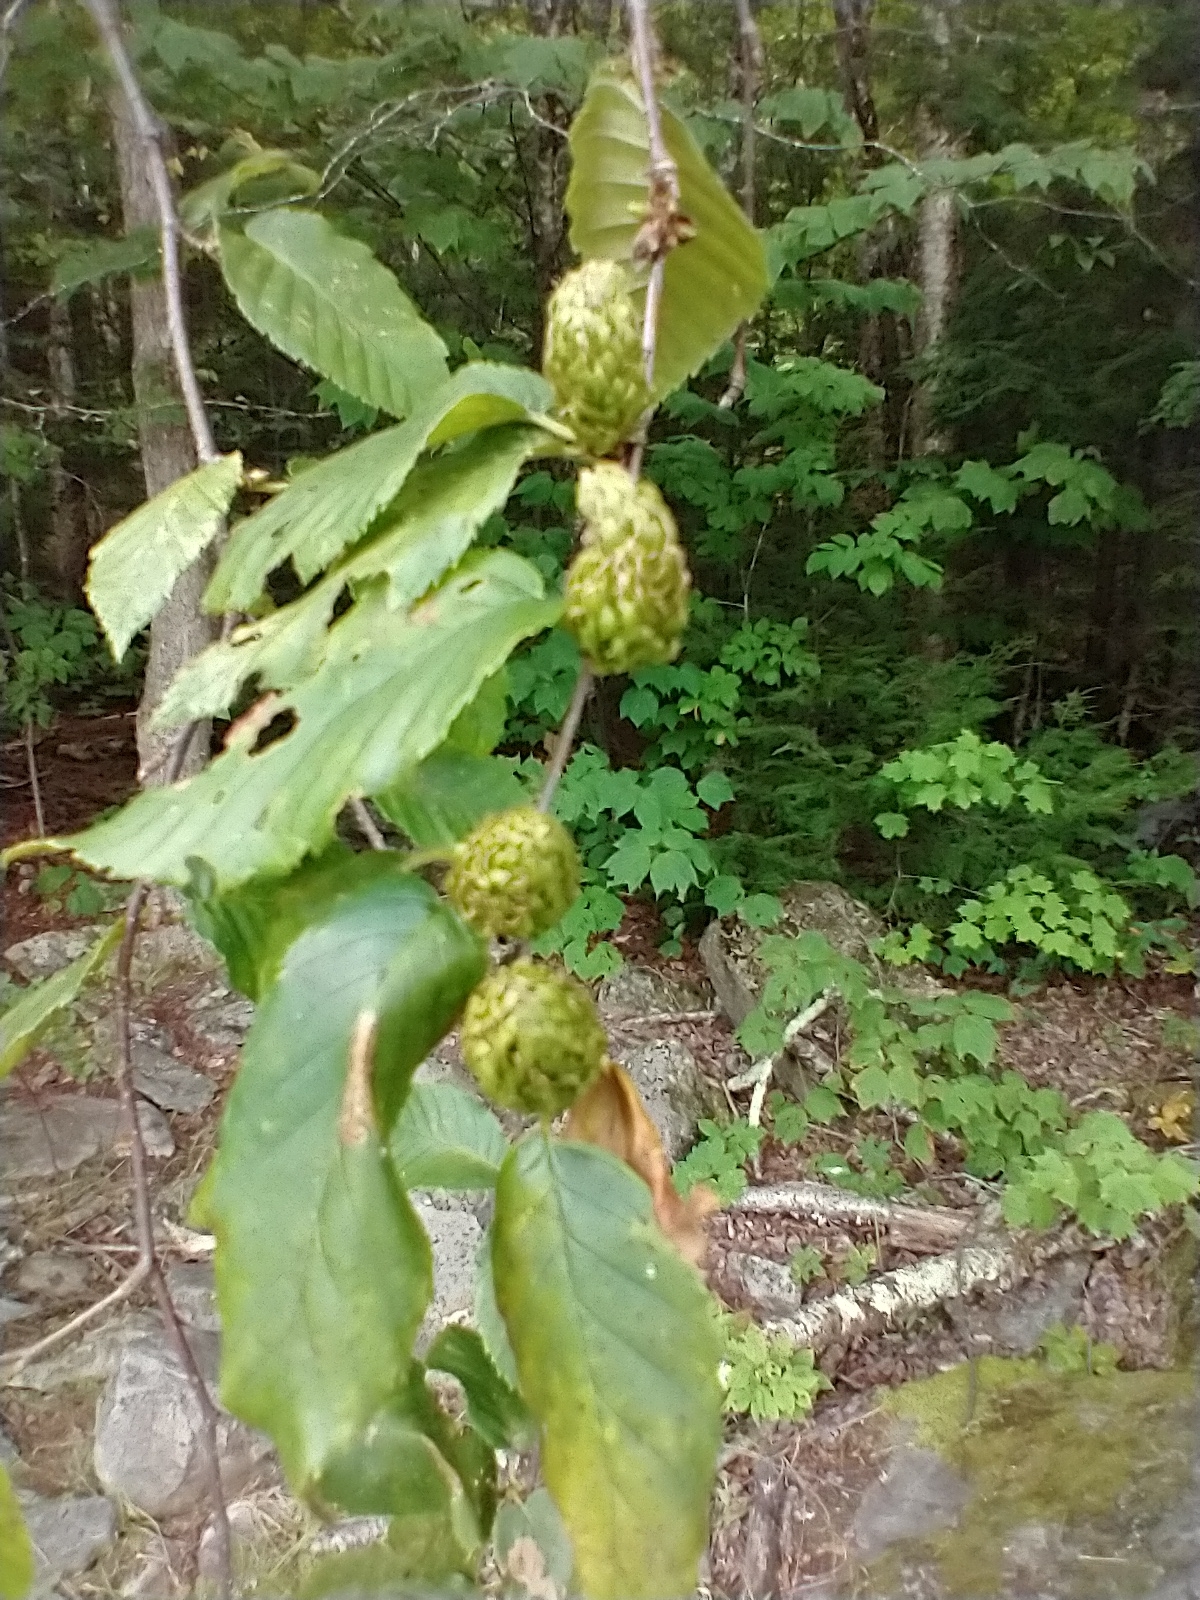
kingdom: Plantae
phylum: Tracheophyta
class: Magnoliopsida
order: Fagales
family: Betulaceae
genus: Betula
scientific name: Betula alleghaniensis
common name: Yellow birch
